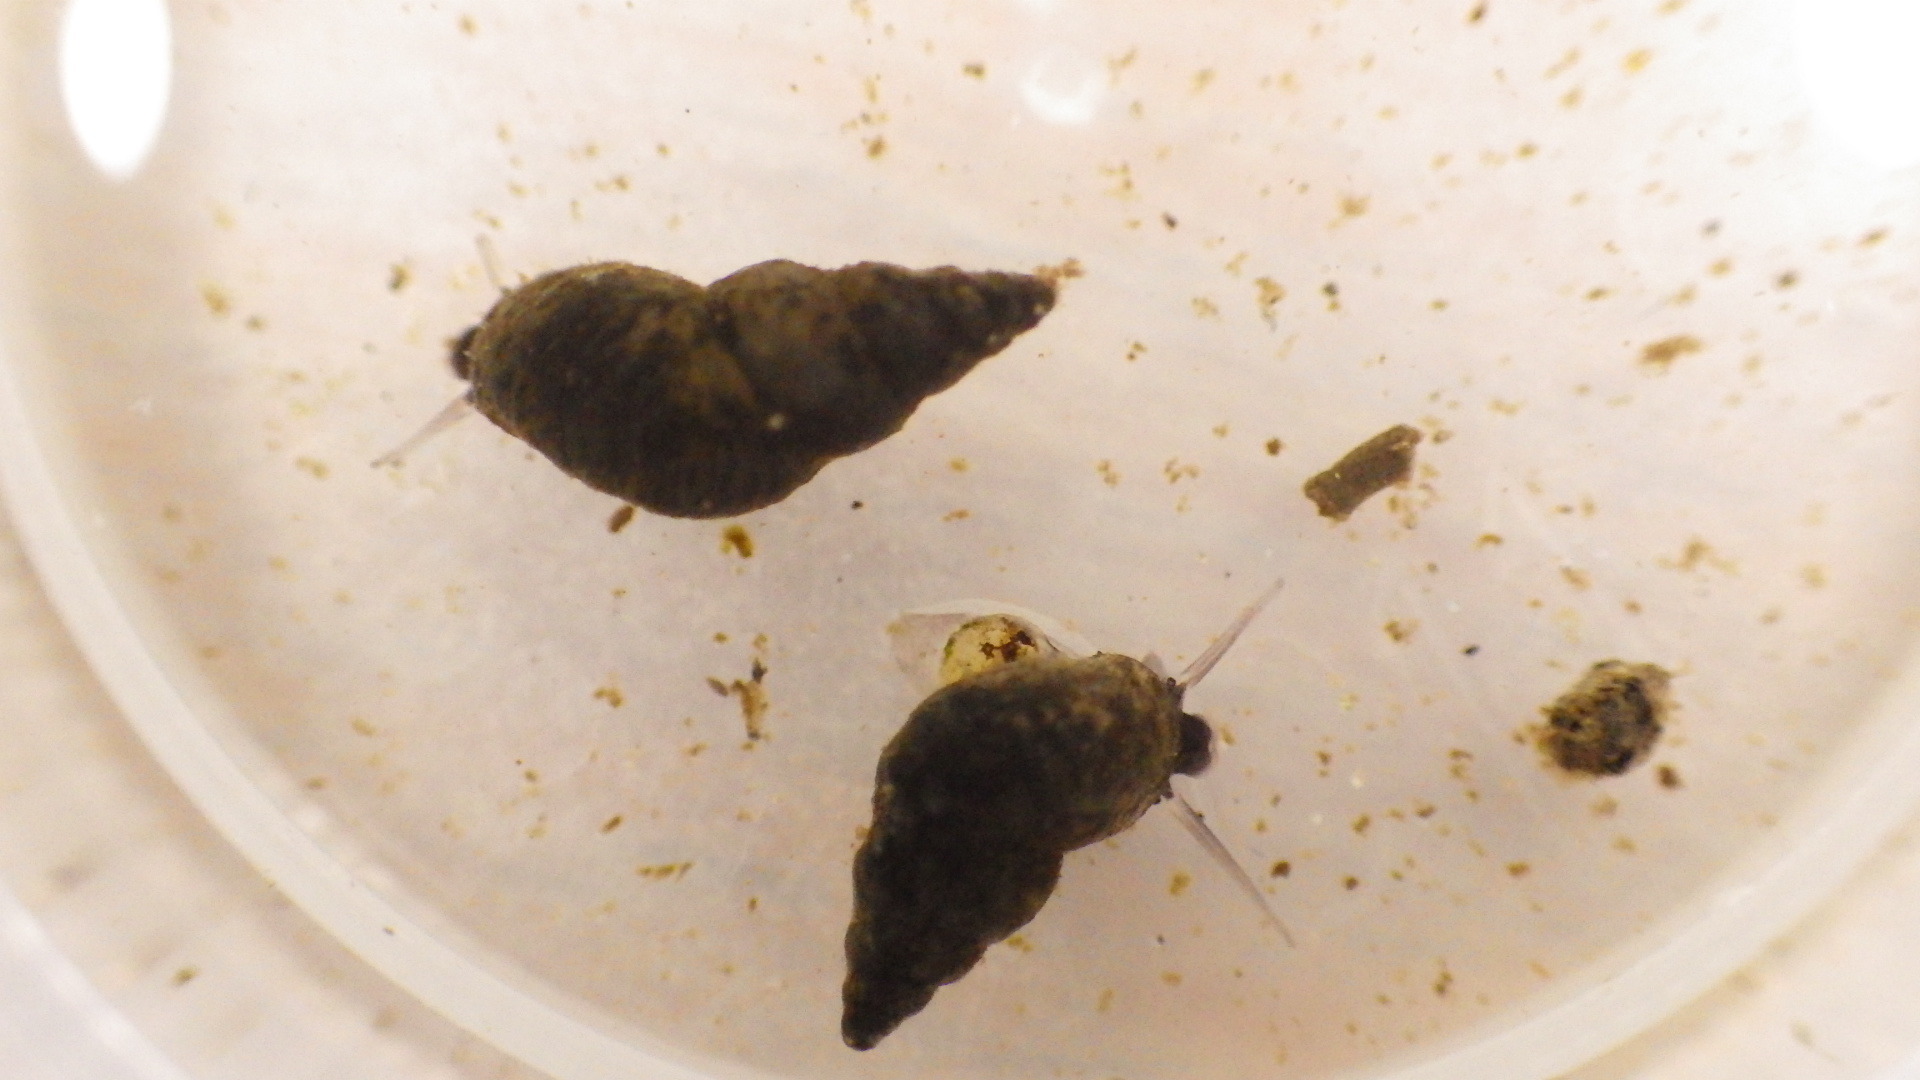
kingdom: Animalia
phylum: Mollusca
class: Gastropoda
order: Littorinimorpha
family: Tateidae
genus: Potamopyrgus
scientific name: Potamopyrgus antipodarum
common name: Jenkins' spire snail
